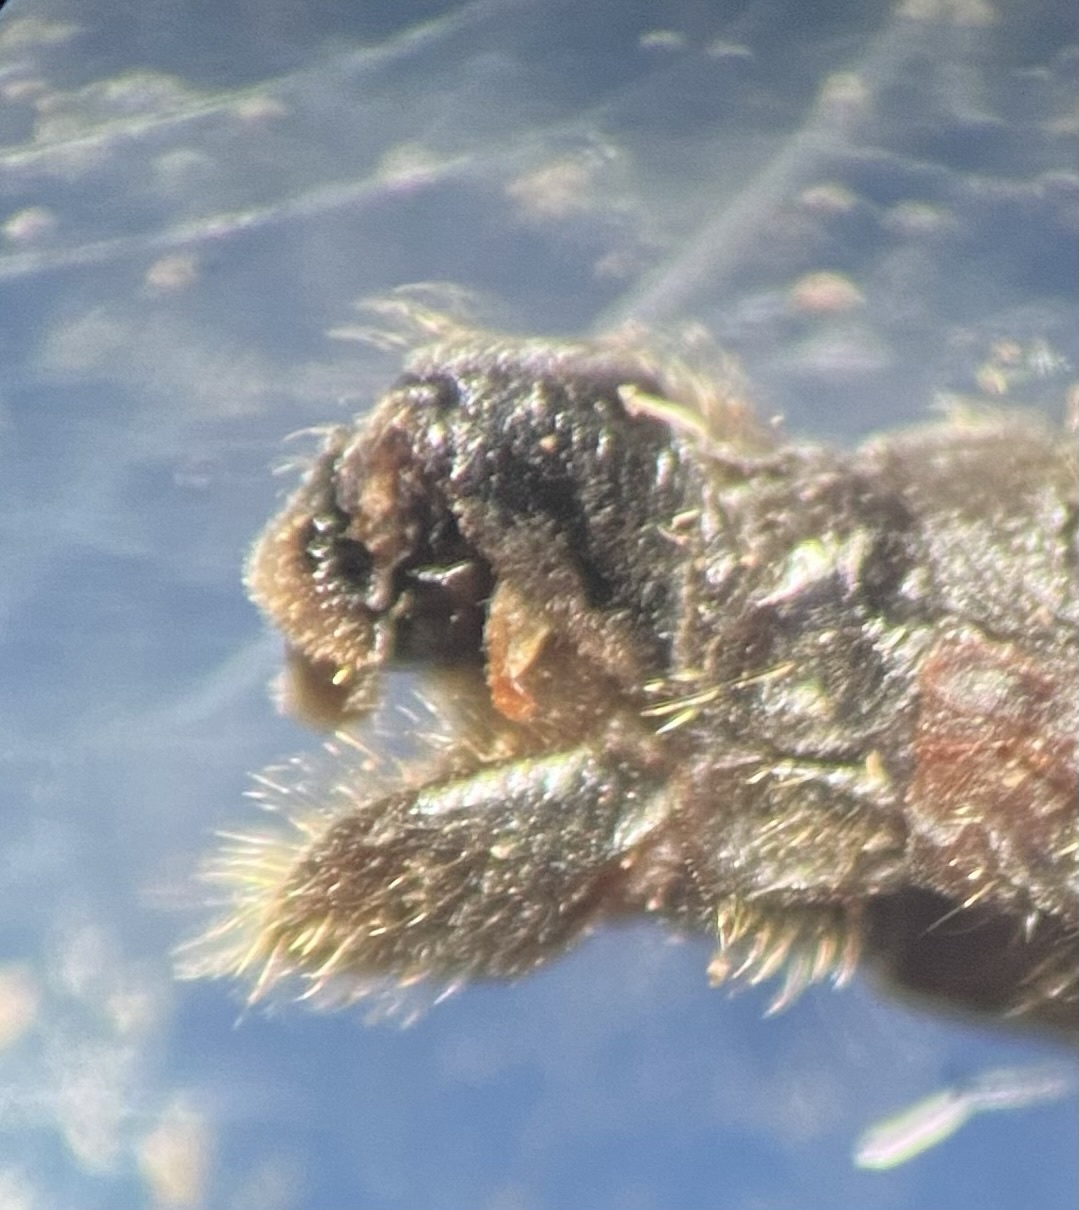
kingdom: Animalia
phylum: Arthropoda
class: Insecta
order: Megaloptera
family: Sialidae
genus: Sialis
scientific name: Sialis lutaria
